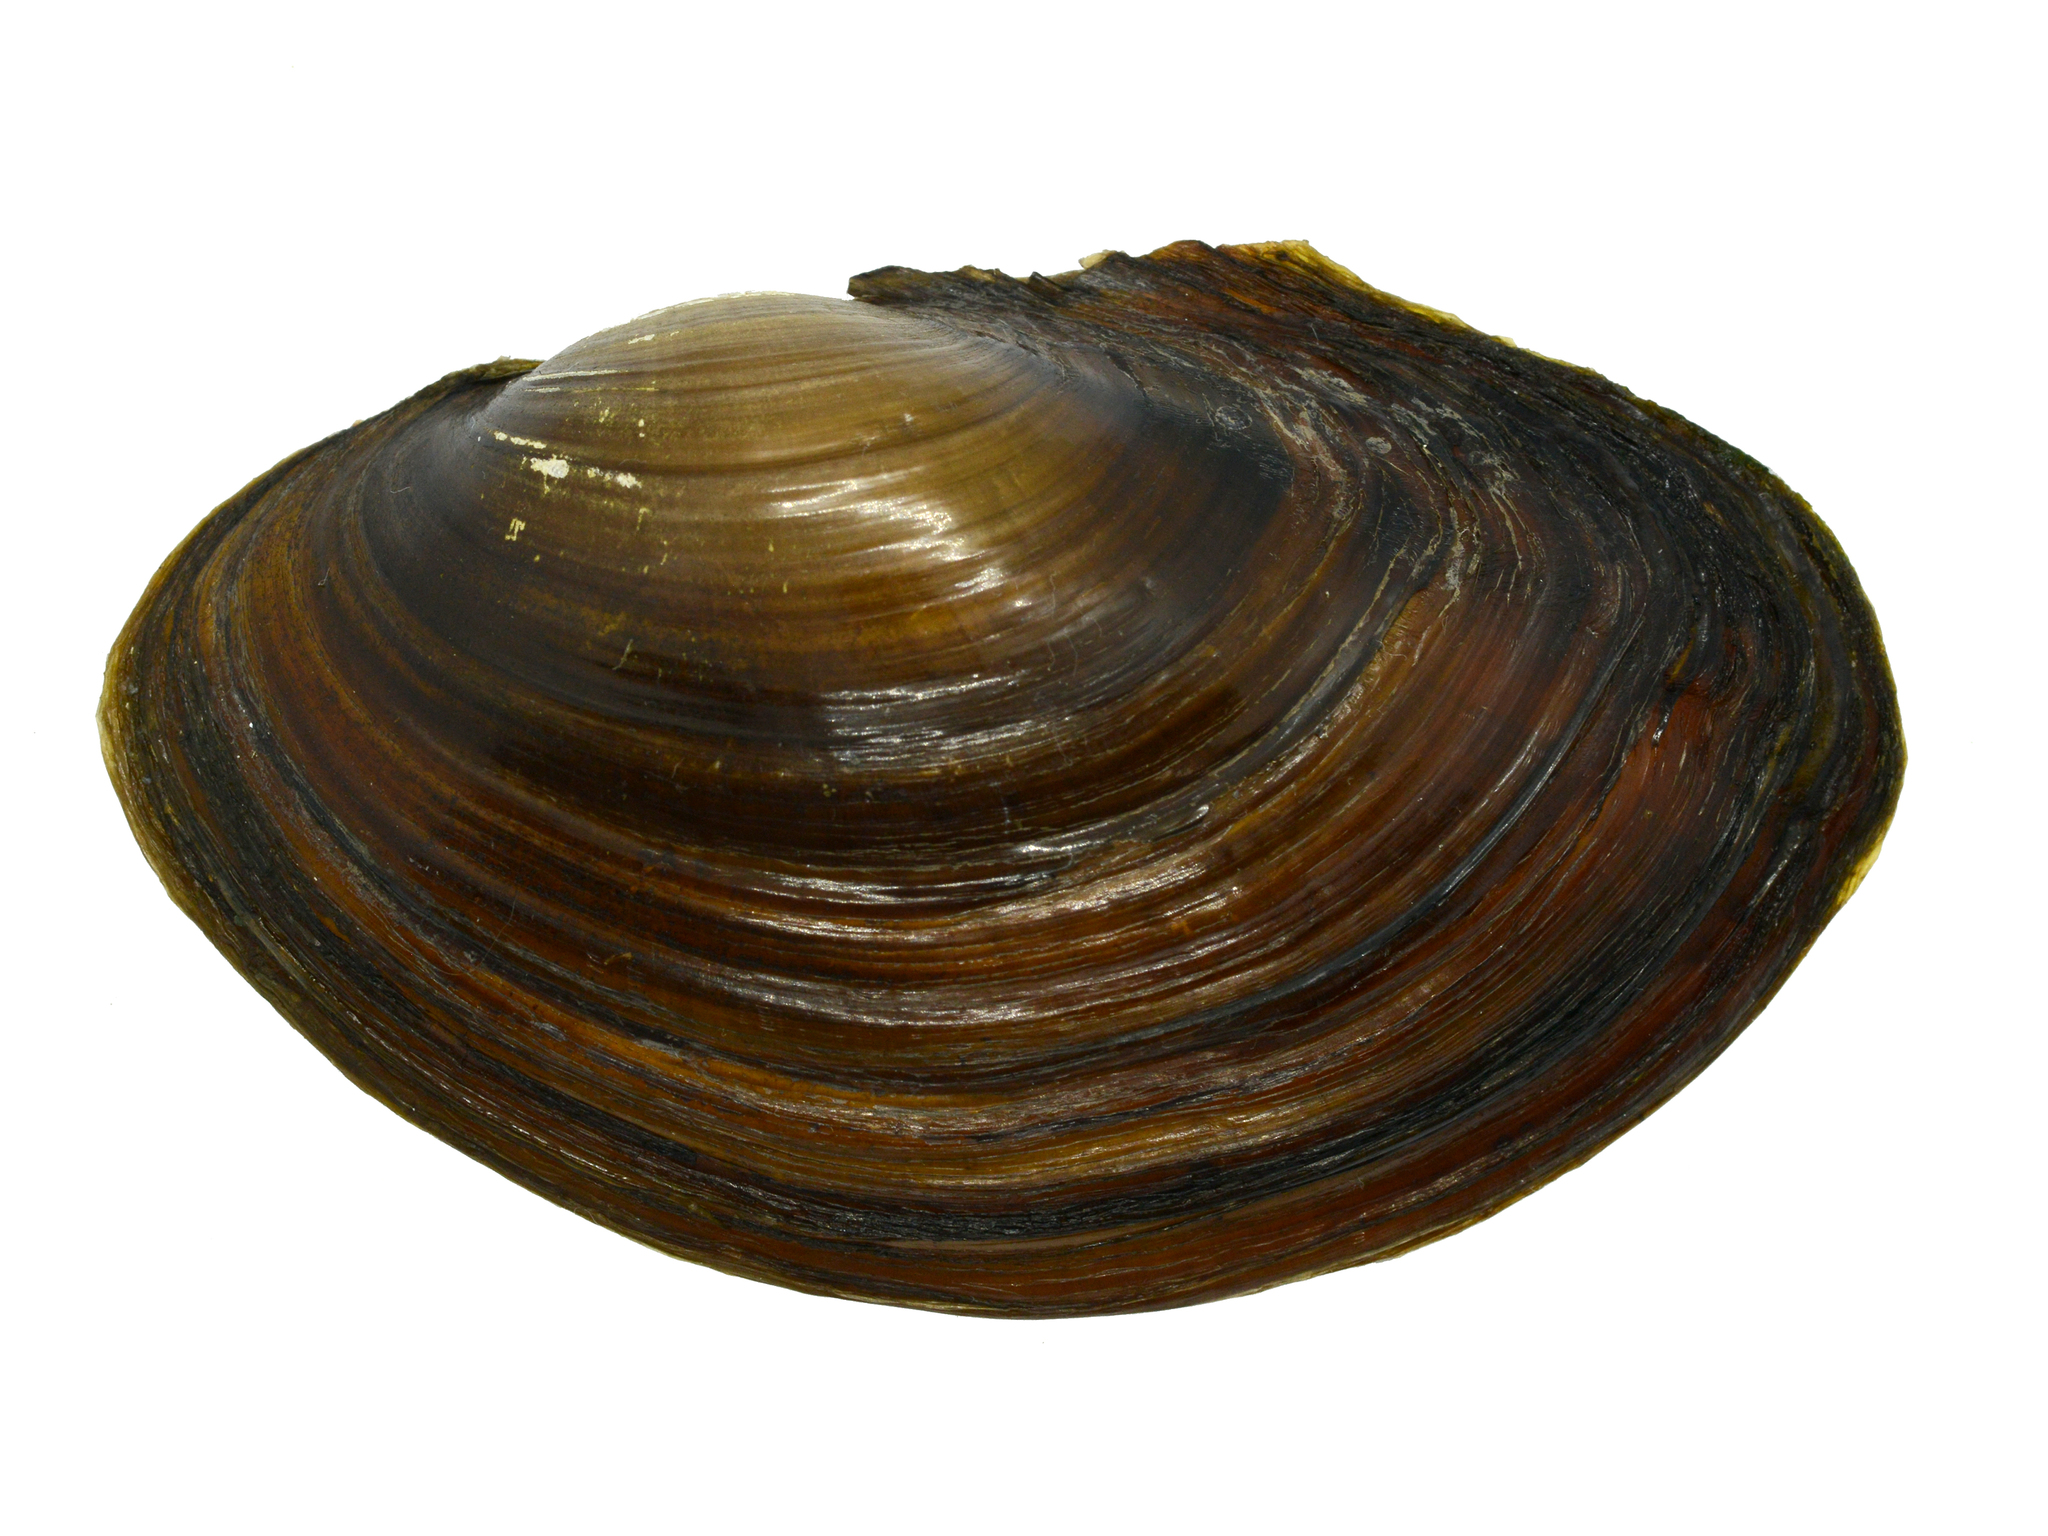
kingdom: Animalia
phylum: Mollusca
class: Bivalvia
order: Unionida
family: Unionidae
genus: Sinanodonta
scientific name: Sinanodonta schrenkii
